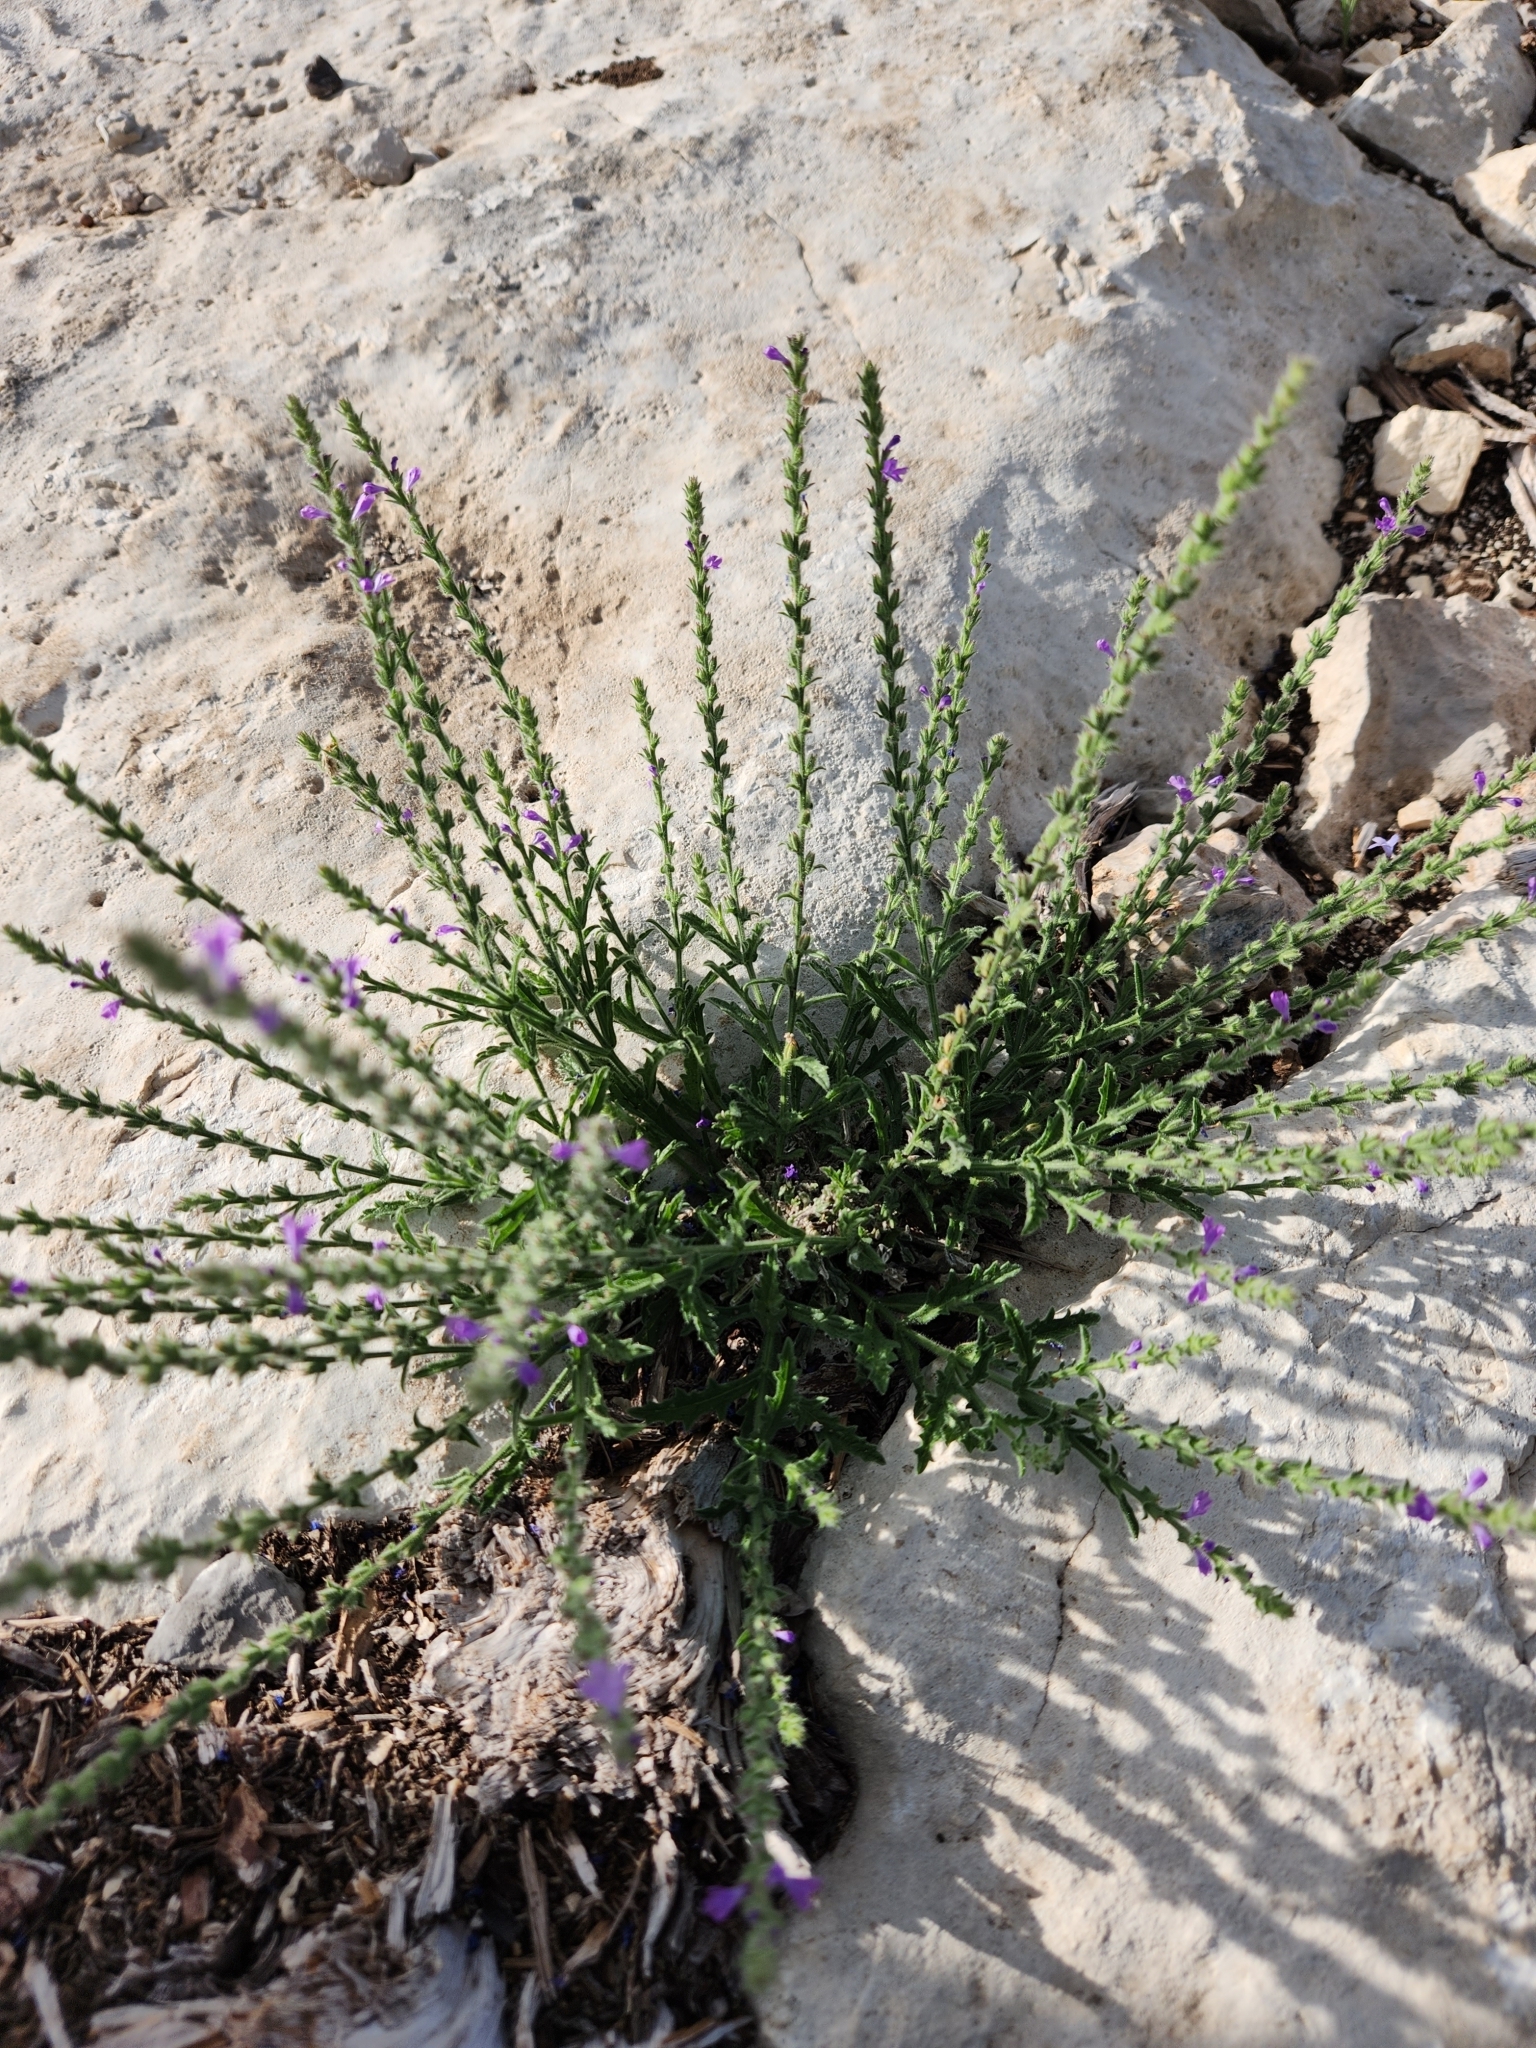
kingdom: Plantae
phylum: Tracheophyta
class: Magnoliopsida
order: Lamiales
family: Verbenaceae
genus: Verbena
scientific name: Verbena canescens
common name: Gray vervain
